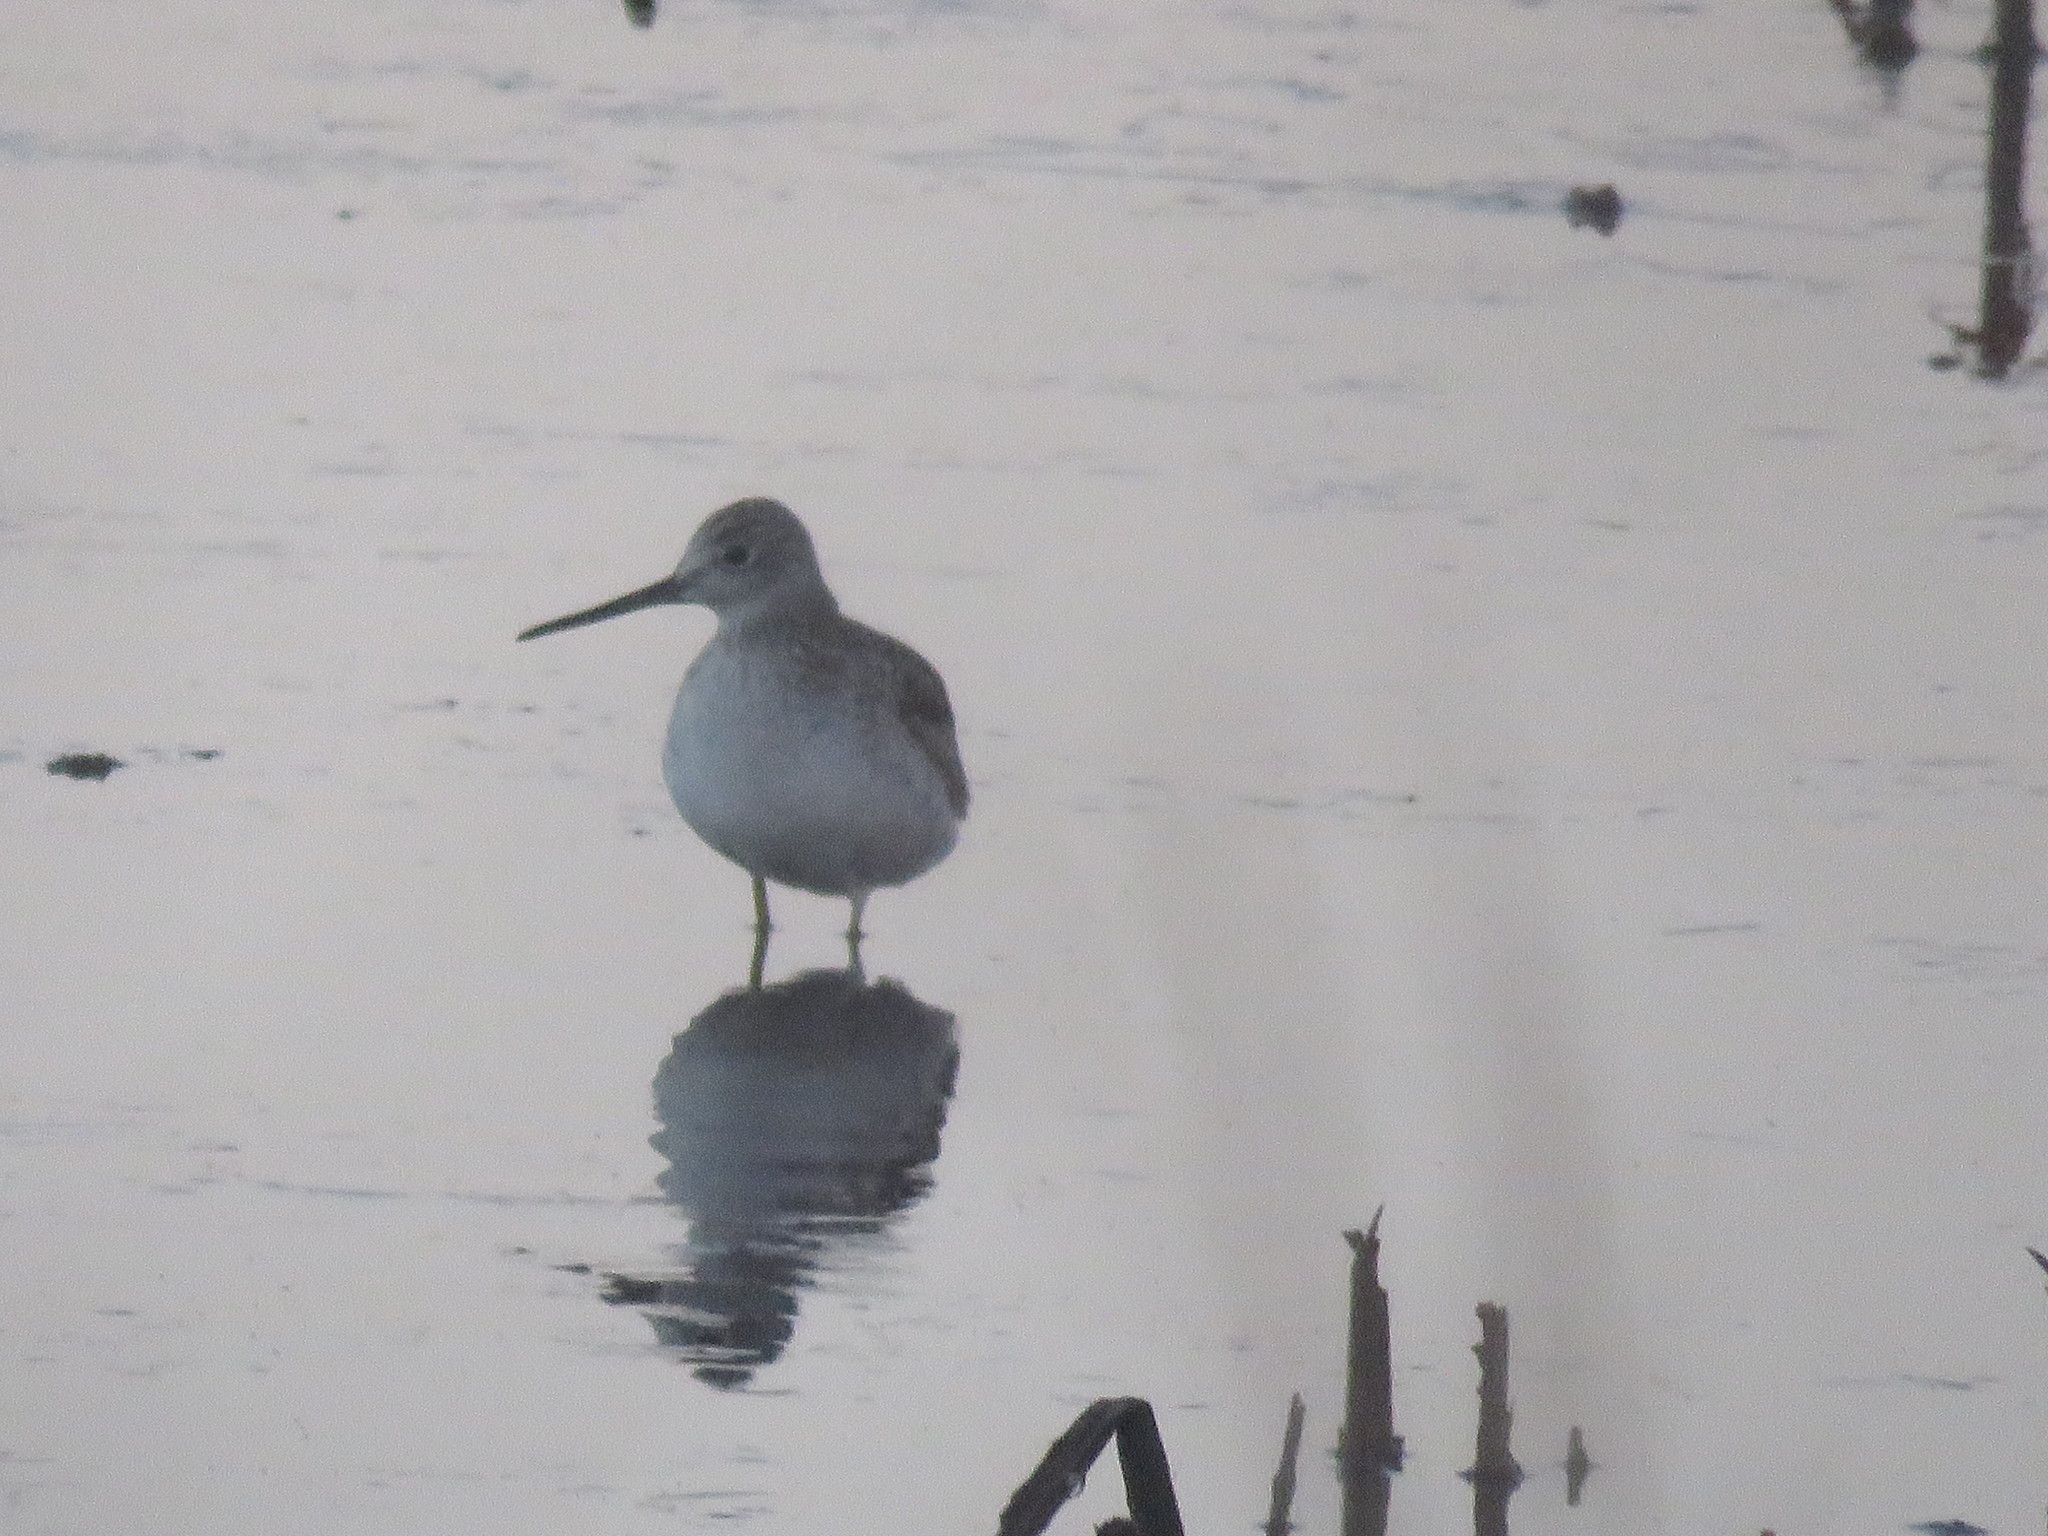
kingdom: Animalia
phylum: Chordata
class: Aves
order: Charadriiformes
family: Scolopacidae
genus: Tringa
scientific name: Tringa melanoleuca
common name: Greater yellowlegs
